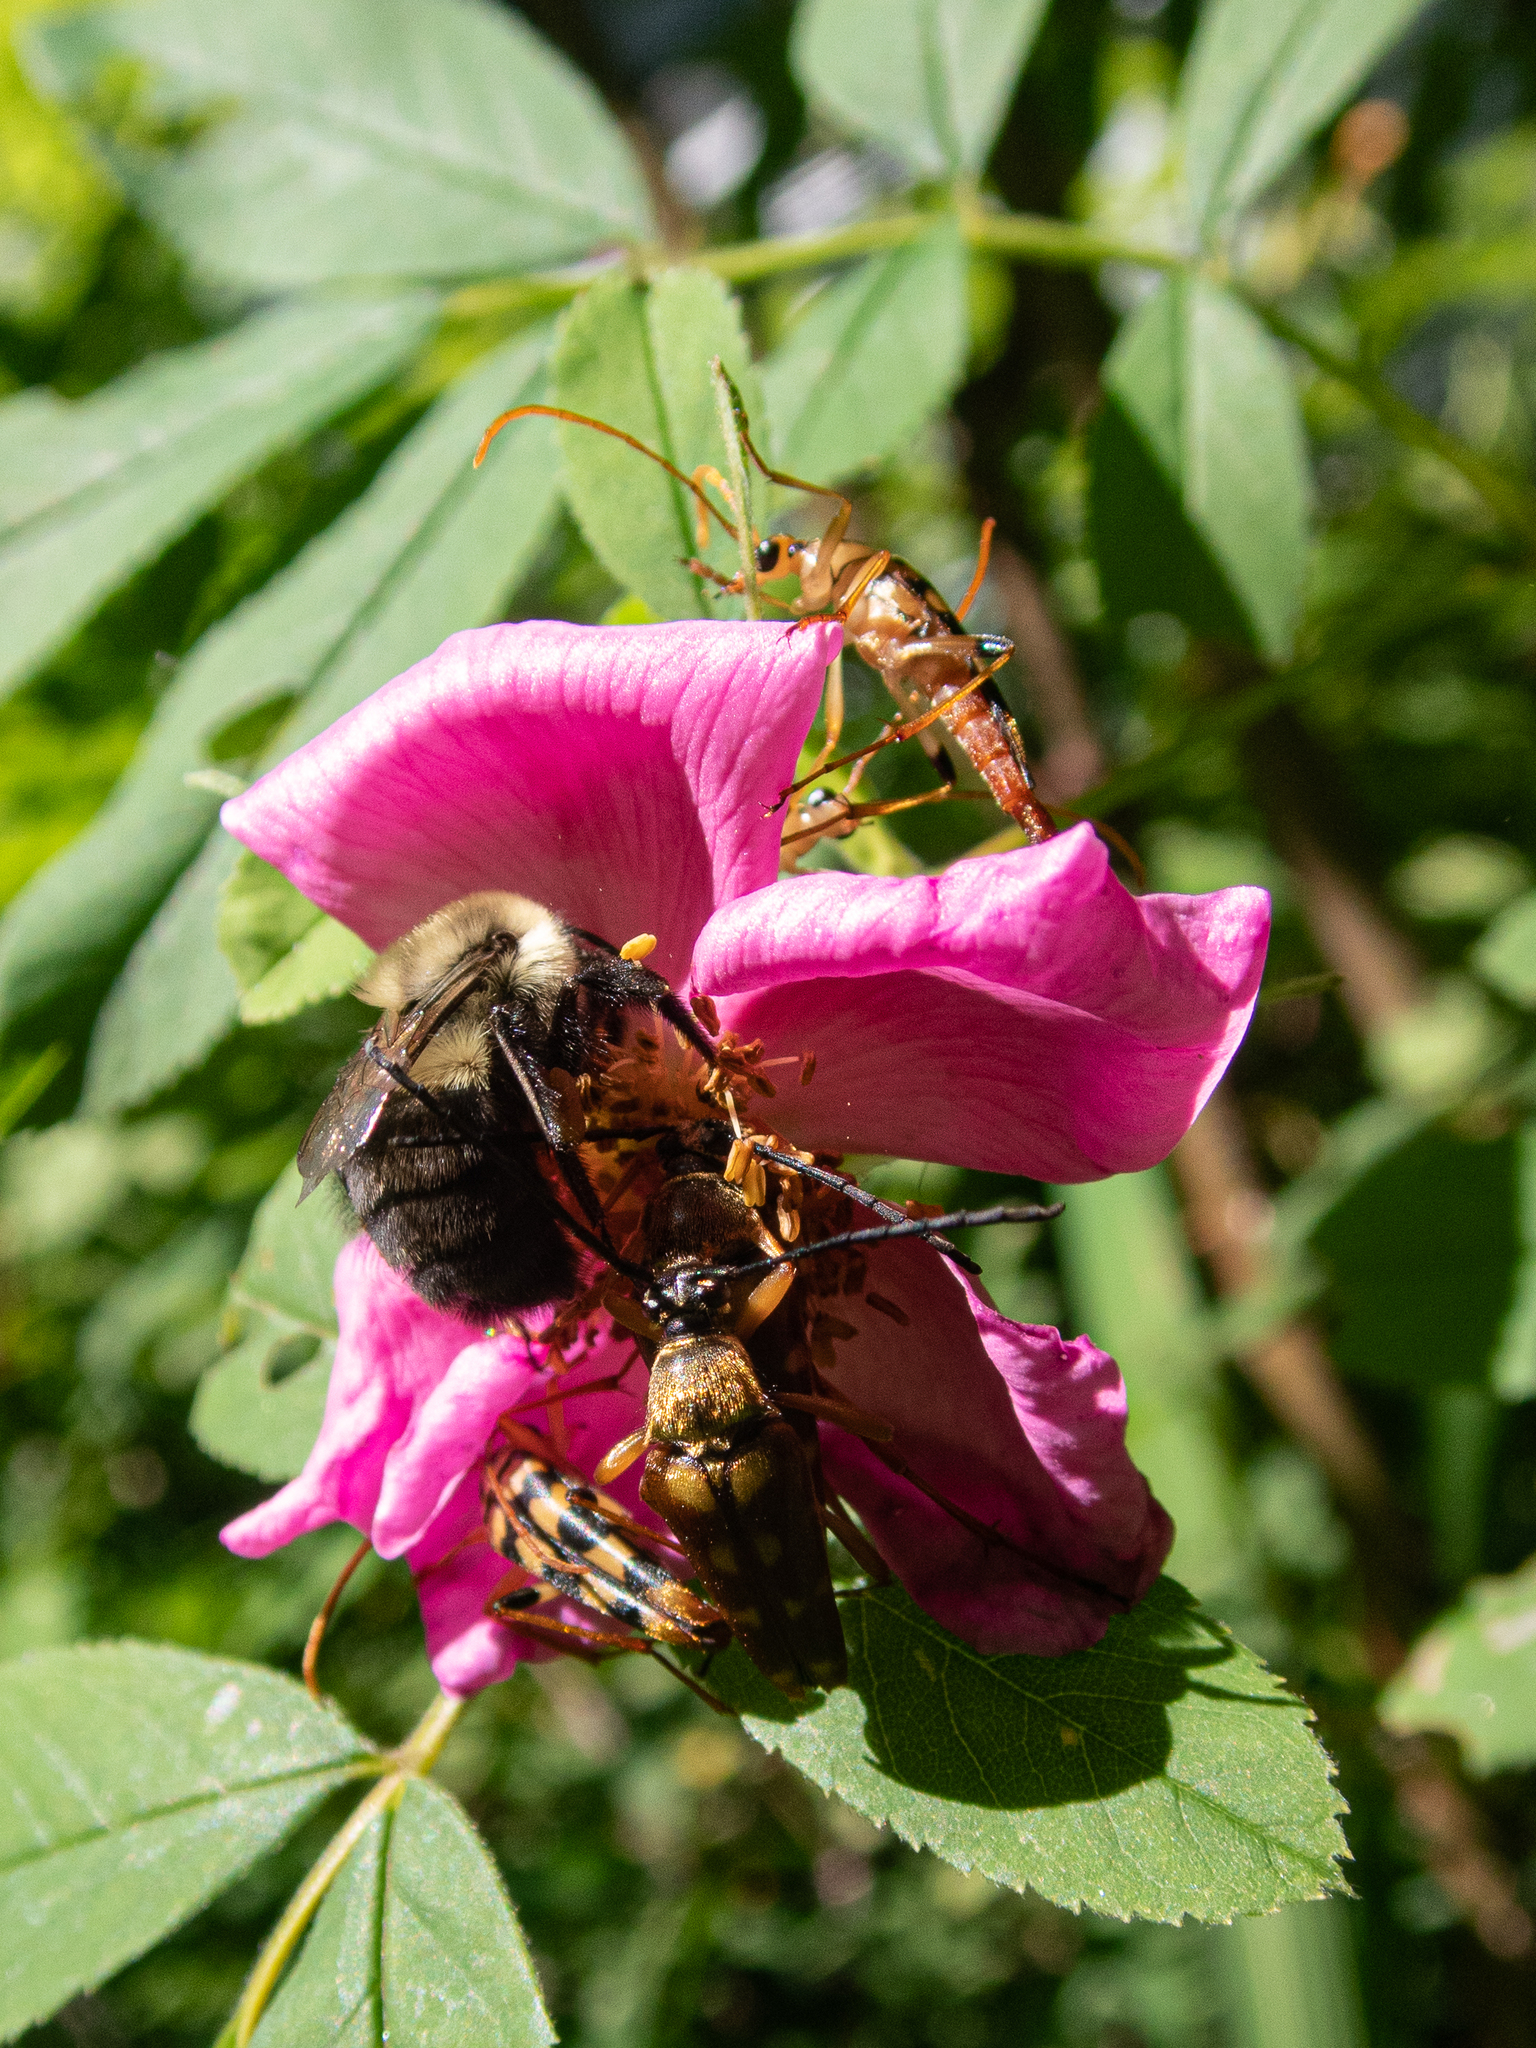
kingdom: Animalia
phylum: Arthropoda
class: Insecta
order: Coleoptera
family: Cerambycidae
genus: Strangalia
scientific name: Strangalia luteicornis
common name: Yellow-horned flower longhorn beetle
